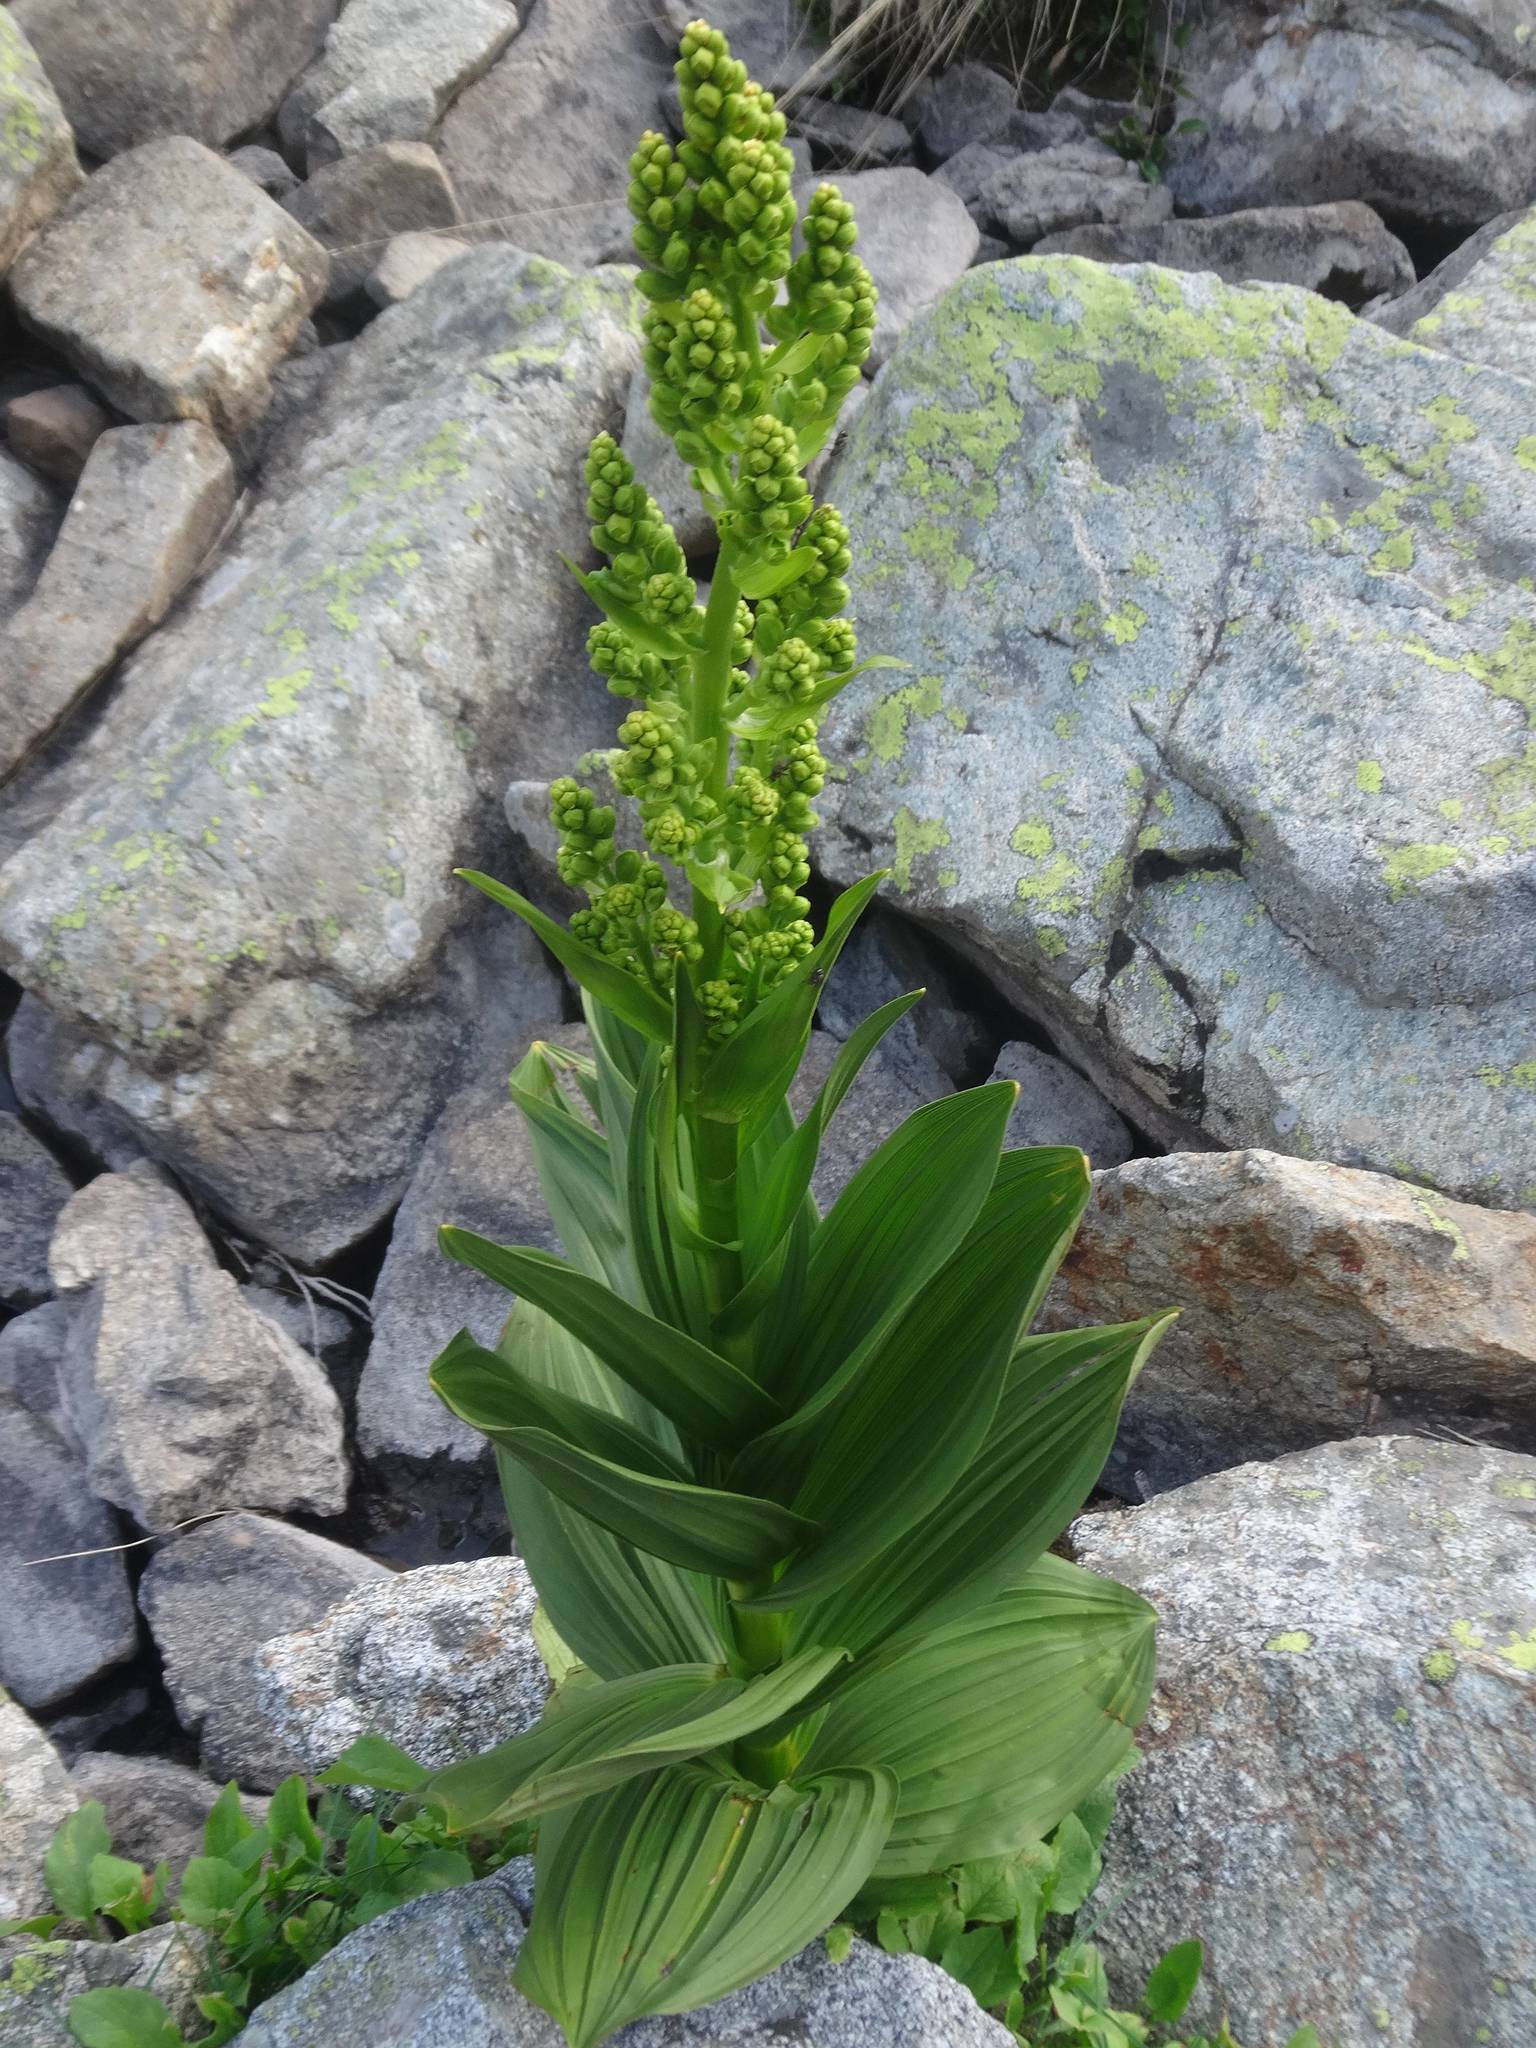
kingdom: Plantae
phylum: Tracheophyta
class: Liliopsida
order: Liliales
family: Melanthiaceae
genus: Veratrum
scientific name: Veratrum album
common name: White veratrum
